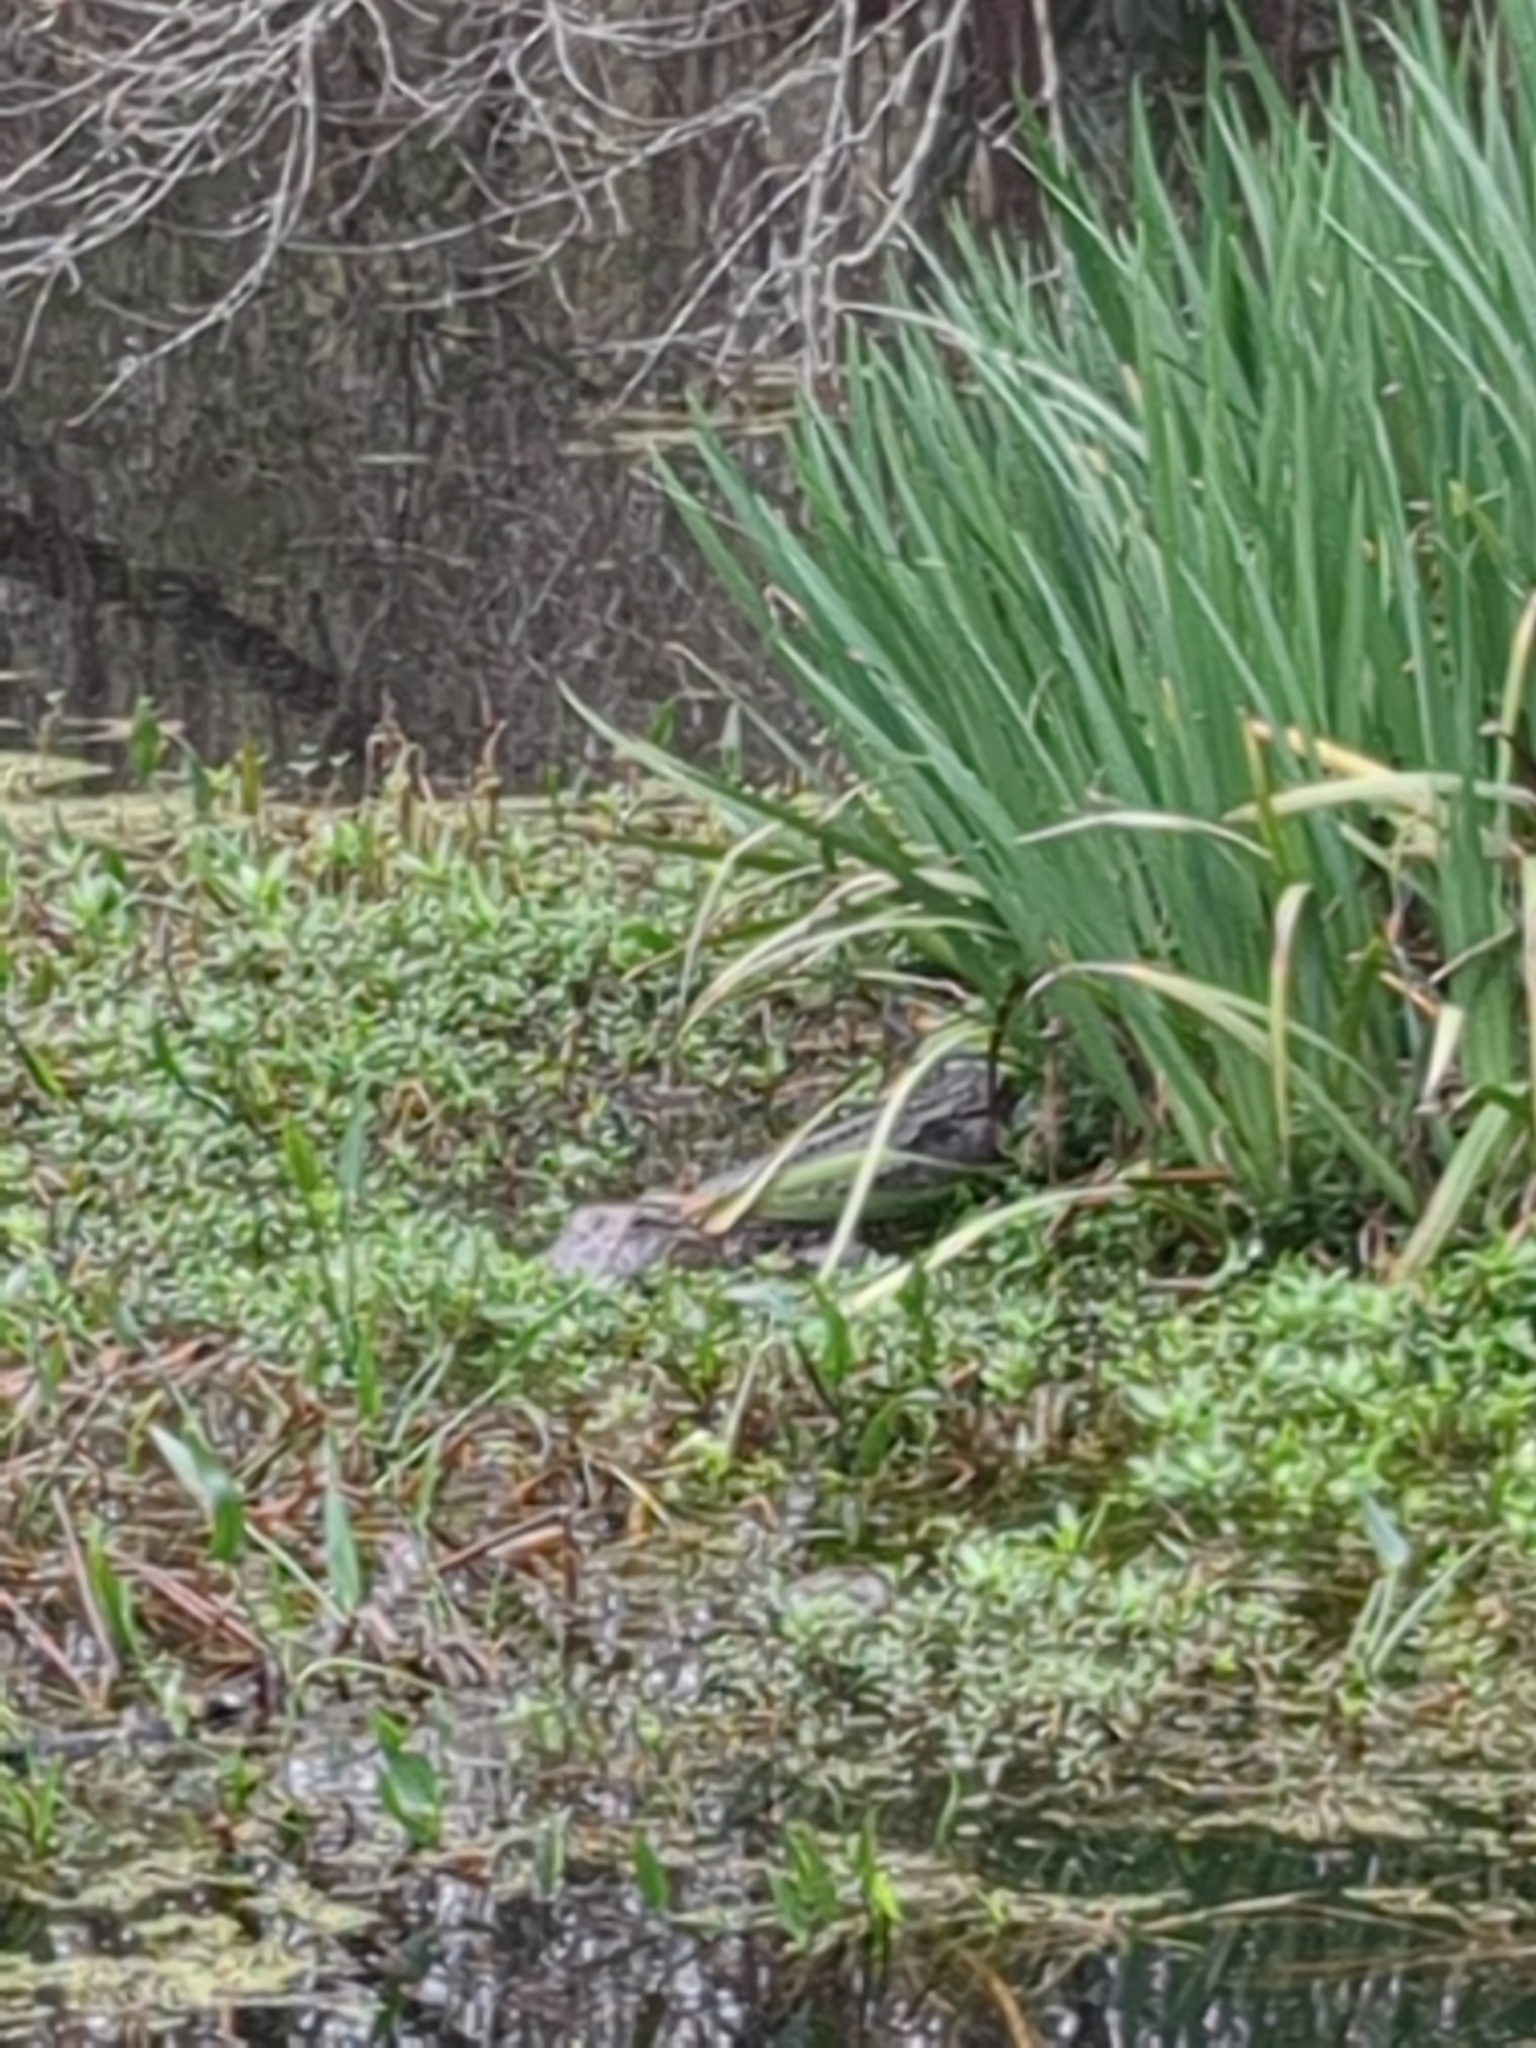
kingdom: Animalia
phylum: Chordata
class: Crocodylia
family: Alligatoridae
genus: Alligator
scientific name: Alligator mississippiensis
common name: American alligator
